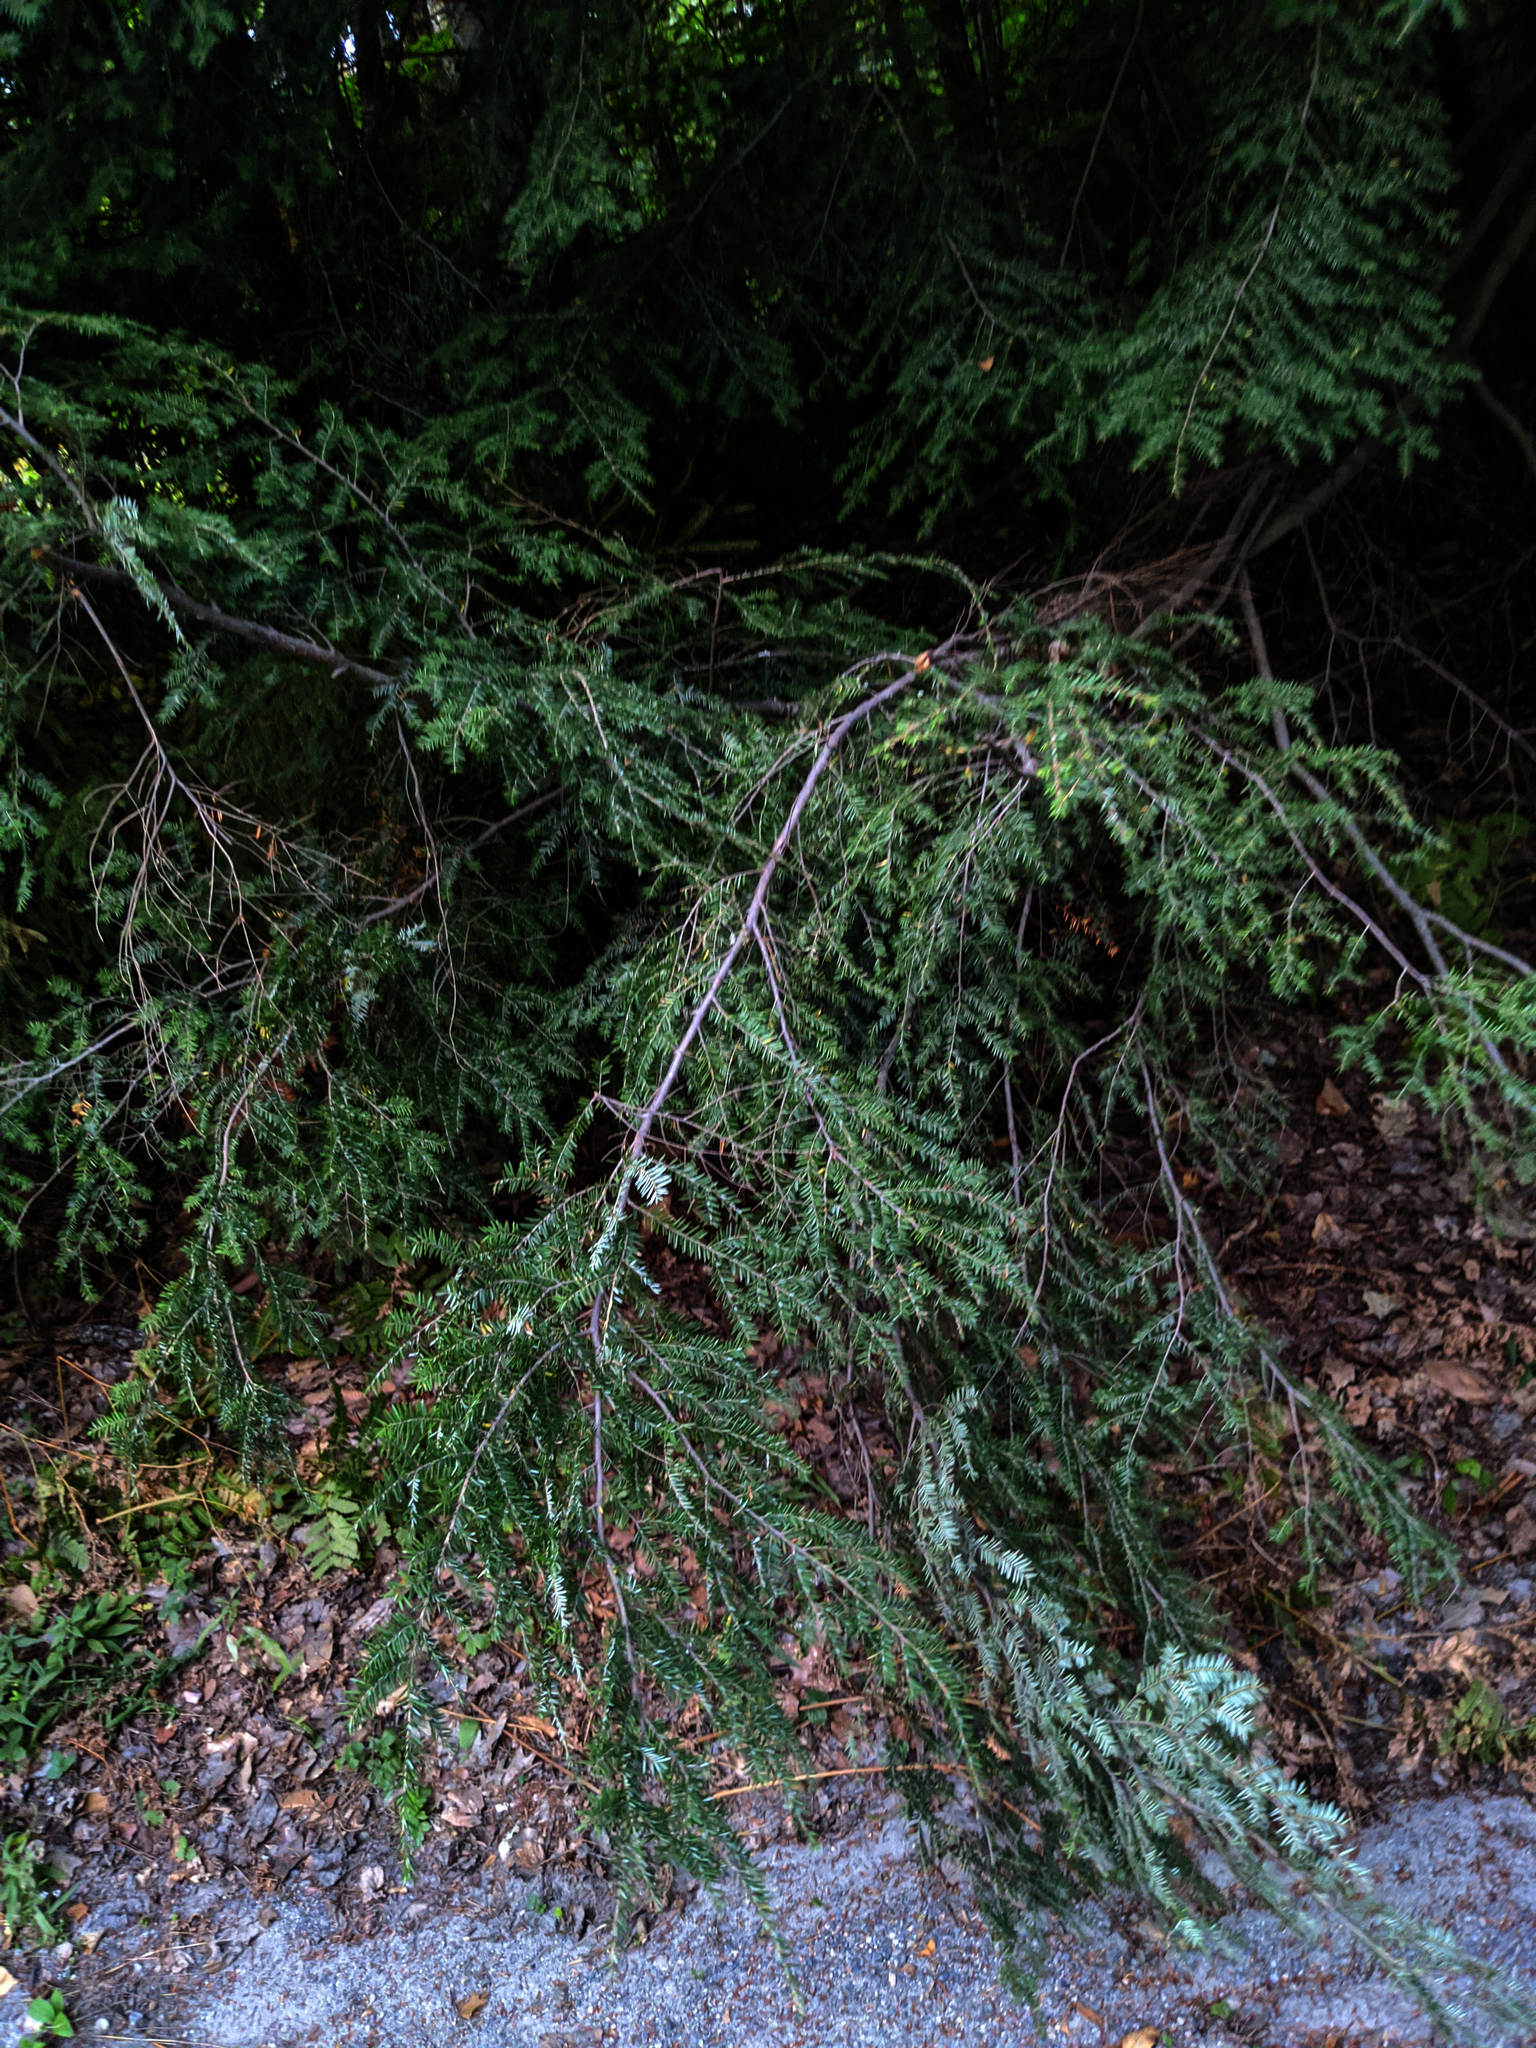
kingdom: Plantae
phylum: Tracheophyta
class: Pinopsida
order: Pinales
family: Pinaceae
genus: Tsuga
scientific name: Tsuga canadensis
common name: Eastern hemlock
